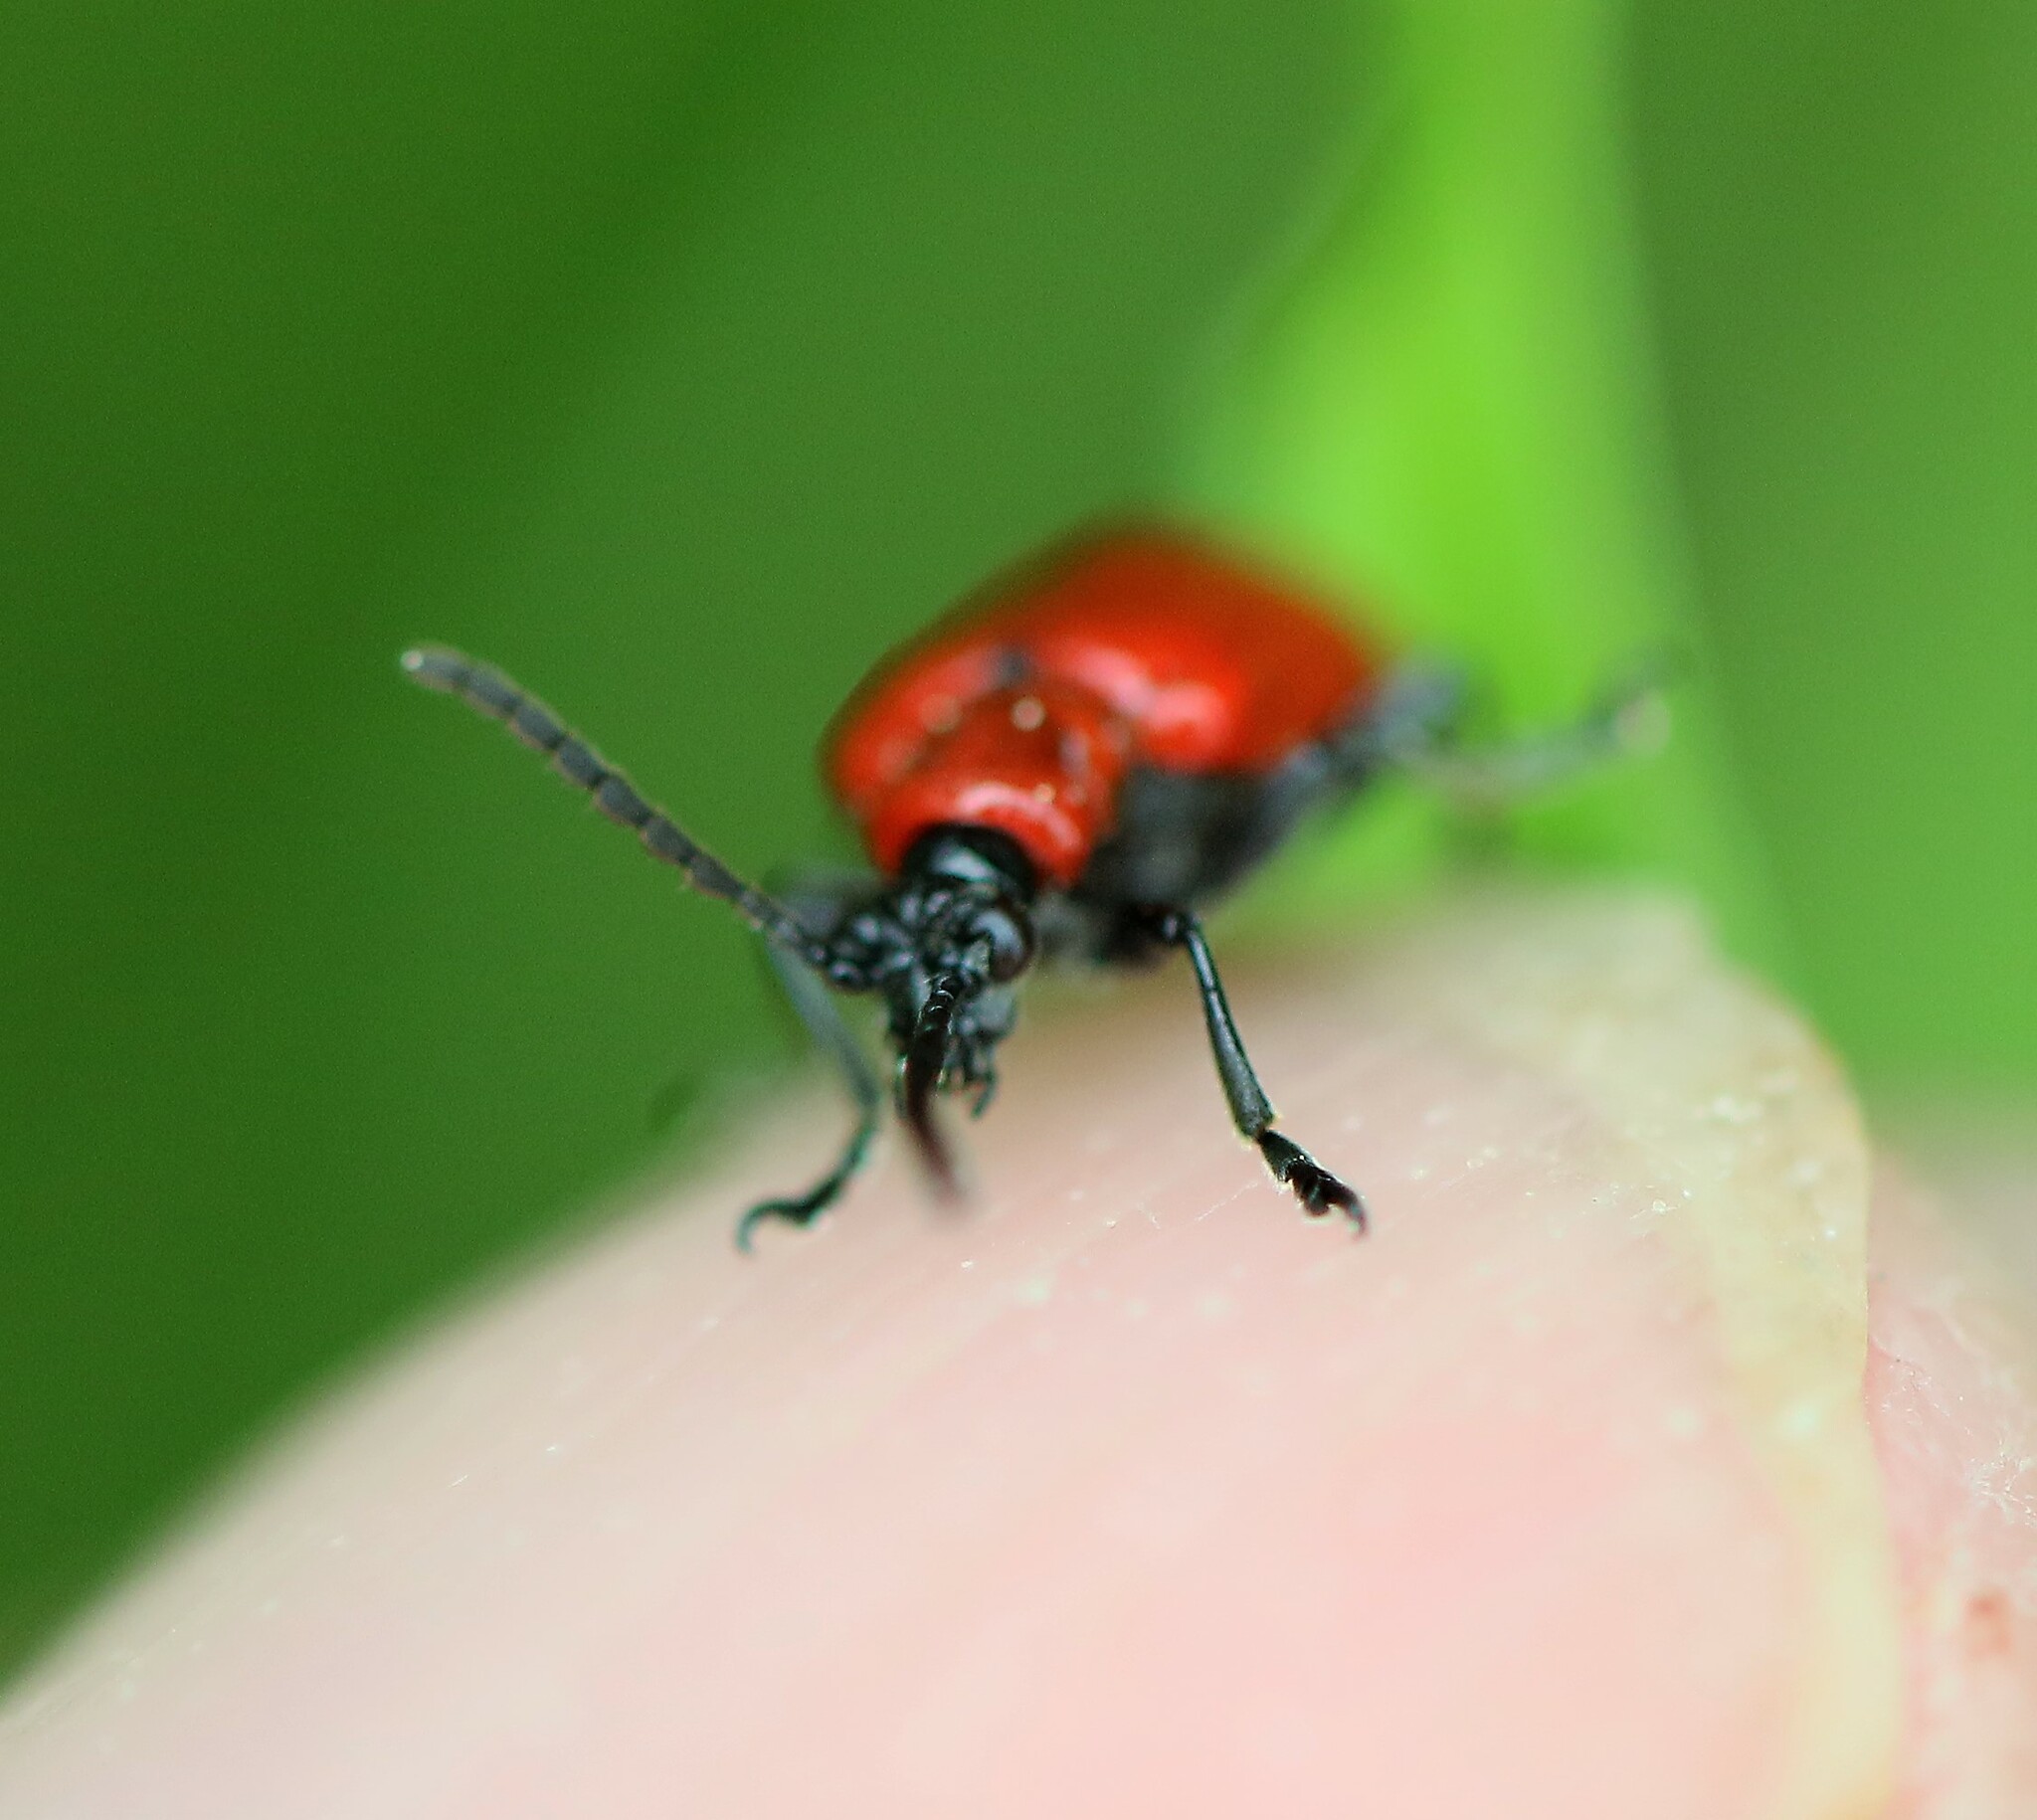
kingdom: Animalia
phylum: Arthropoda
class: Insecta
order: Coleoptera
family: Chrysomelidae
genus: Lilioceris
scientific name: Lilioceris lilii
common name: Lily beetle
